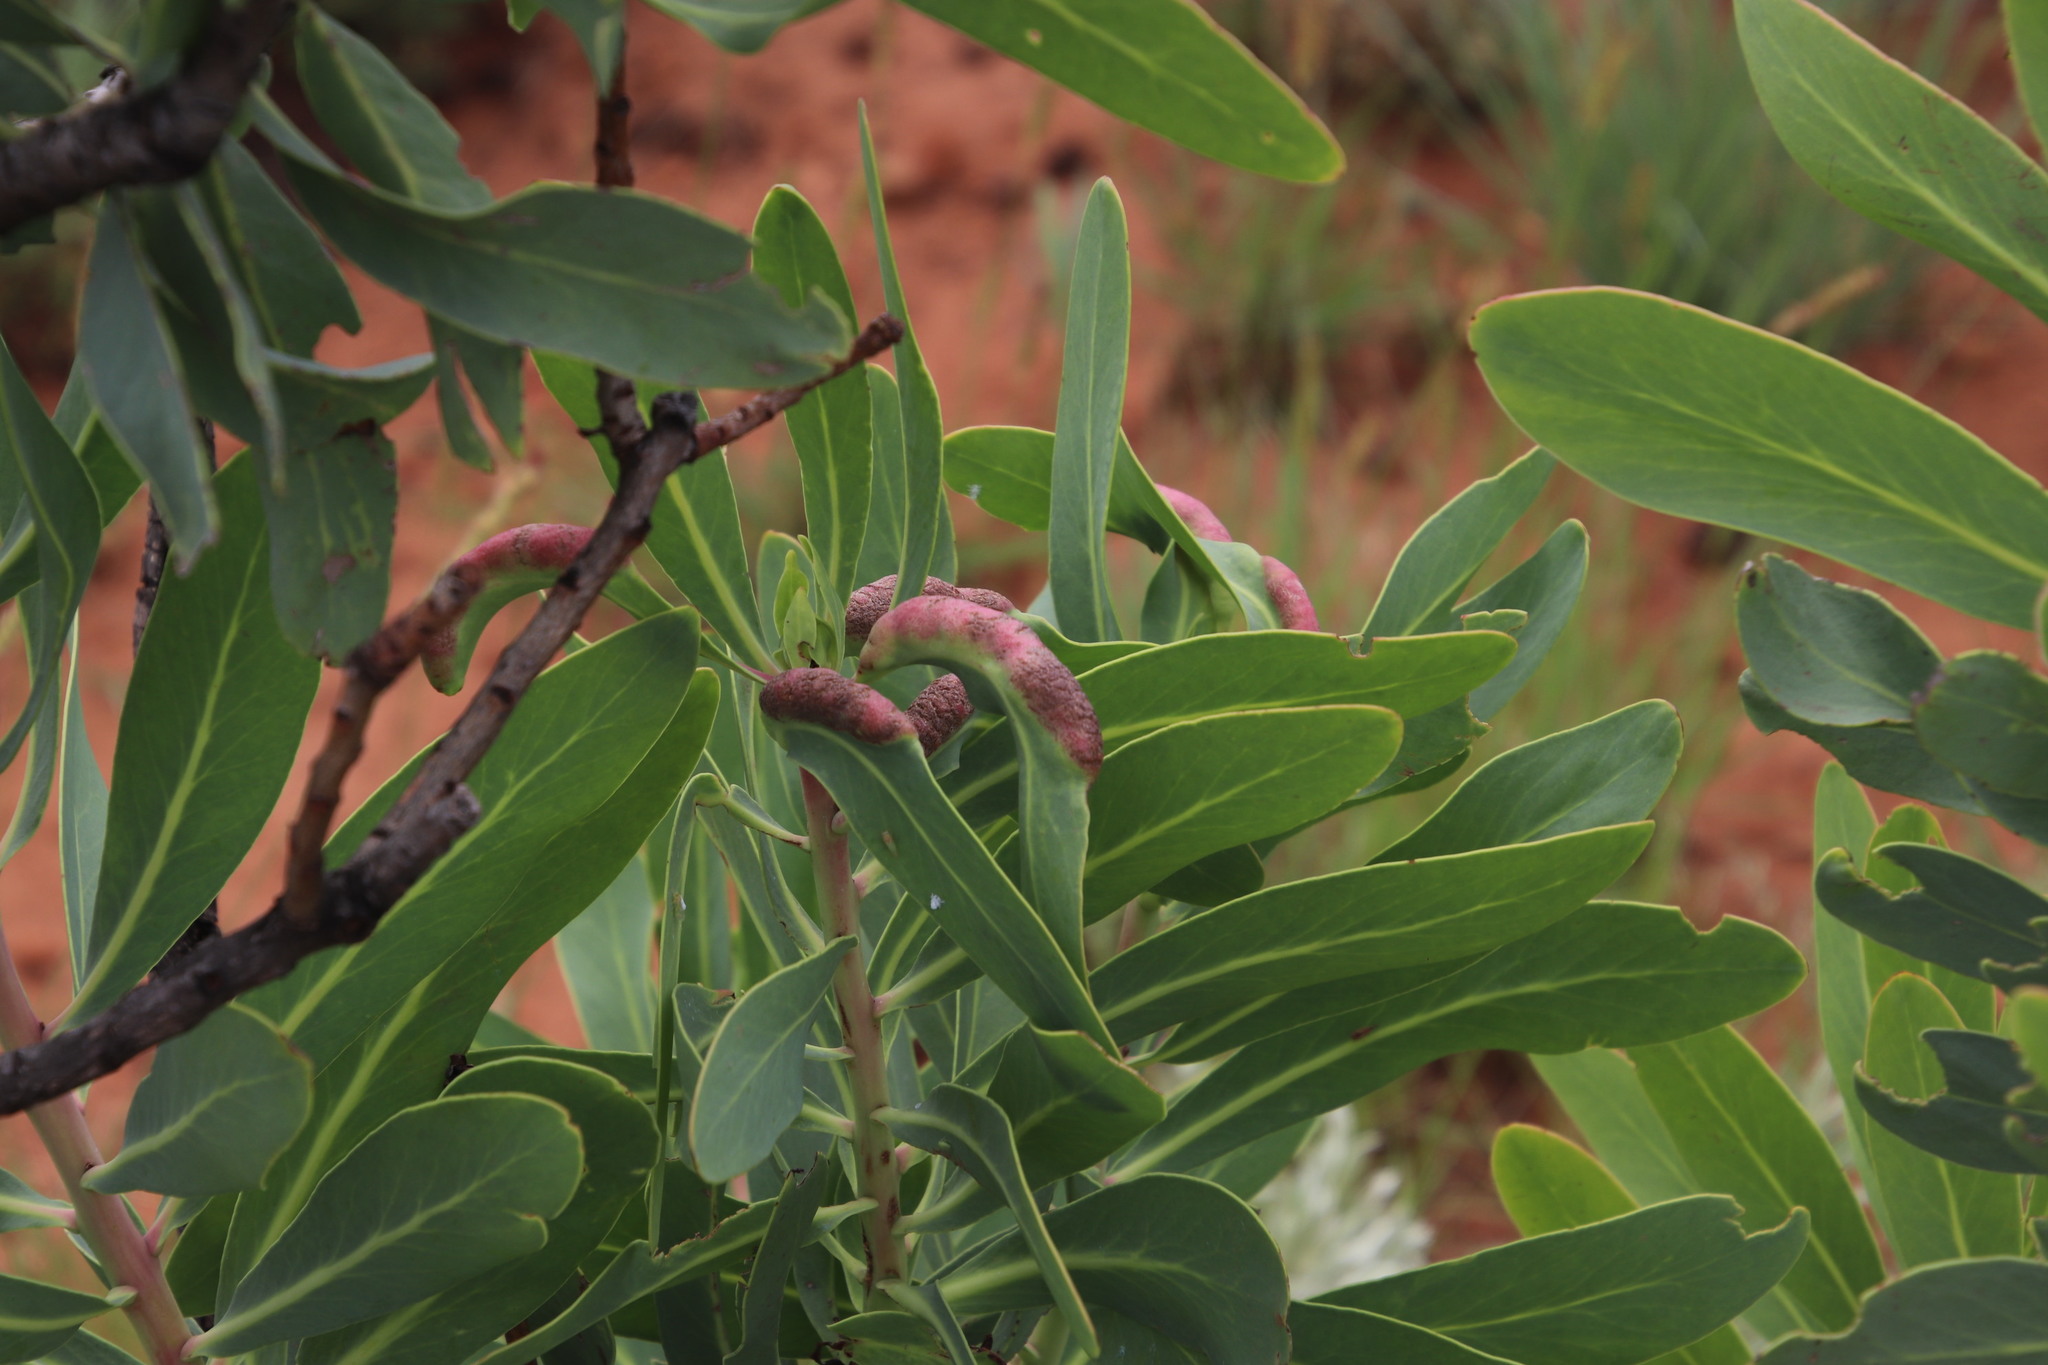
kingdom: Plantae
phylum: Tracheophyta
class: Magnoliopsida
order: Proteales
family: Proteaceae
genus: Protea
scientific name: Protea caffra
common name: Common sugarbush
